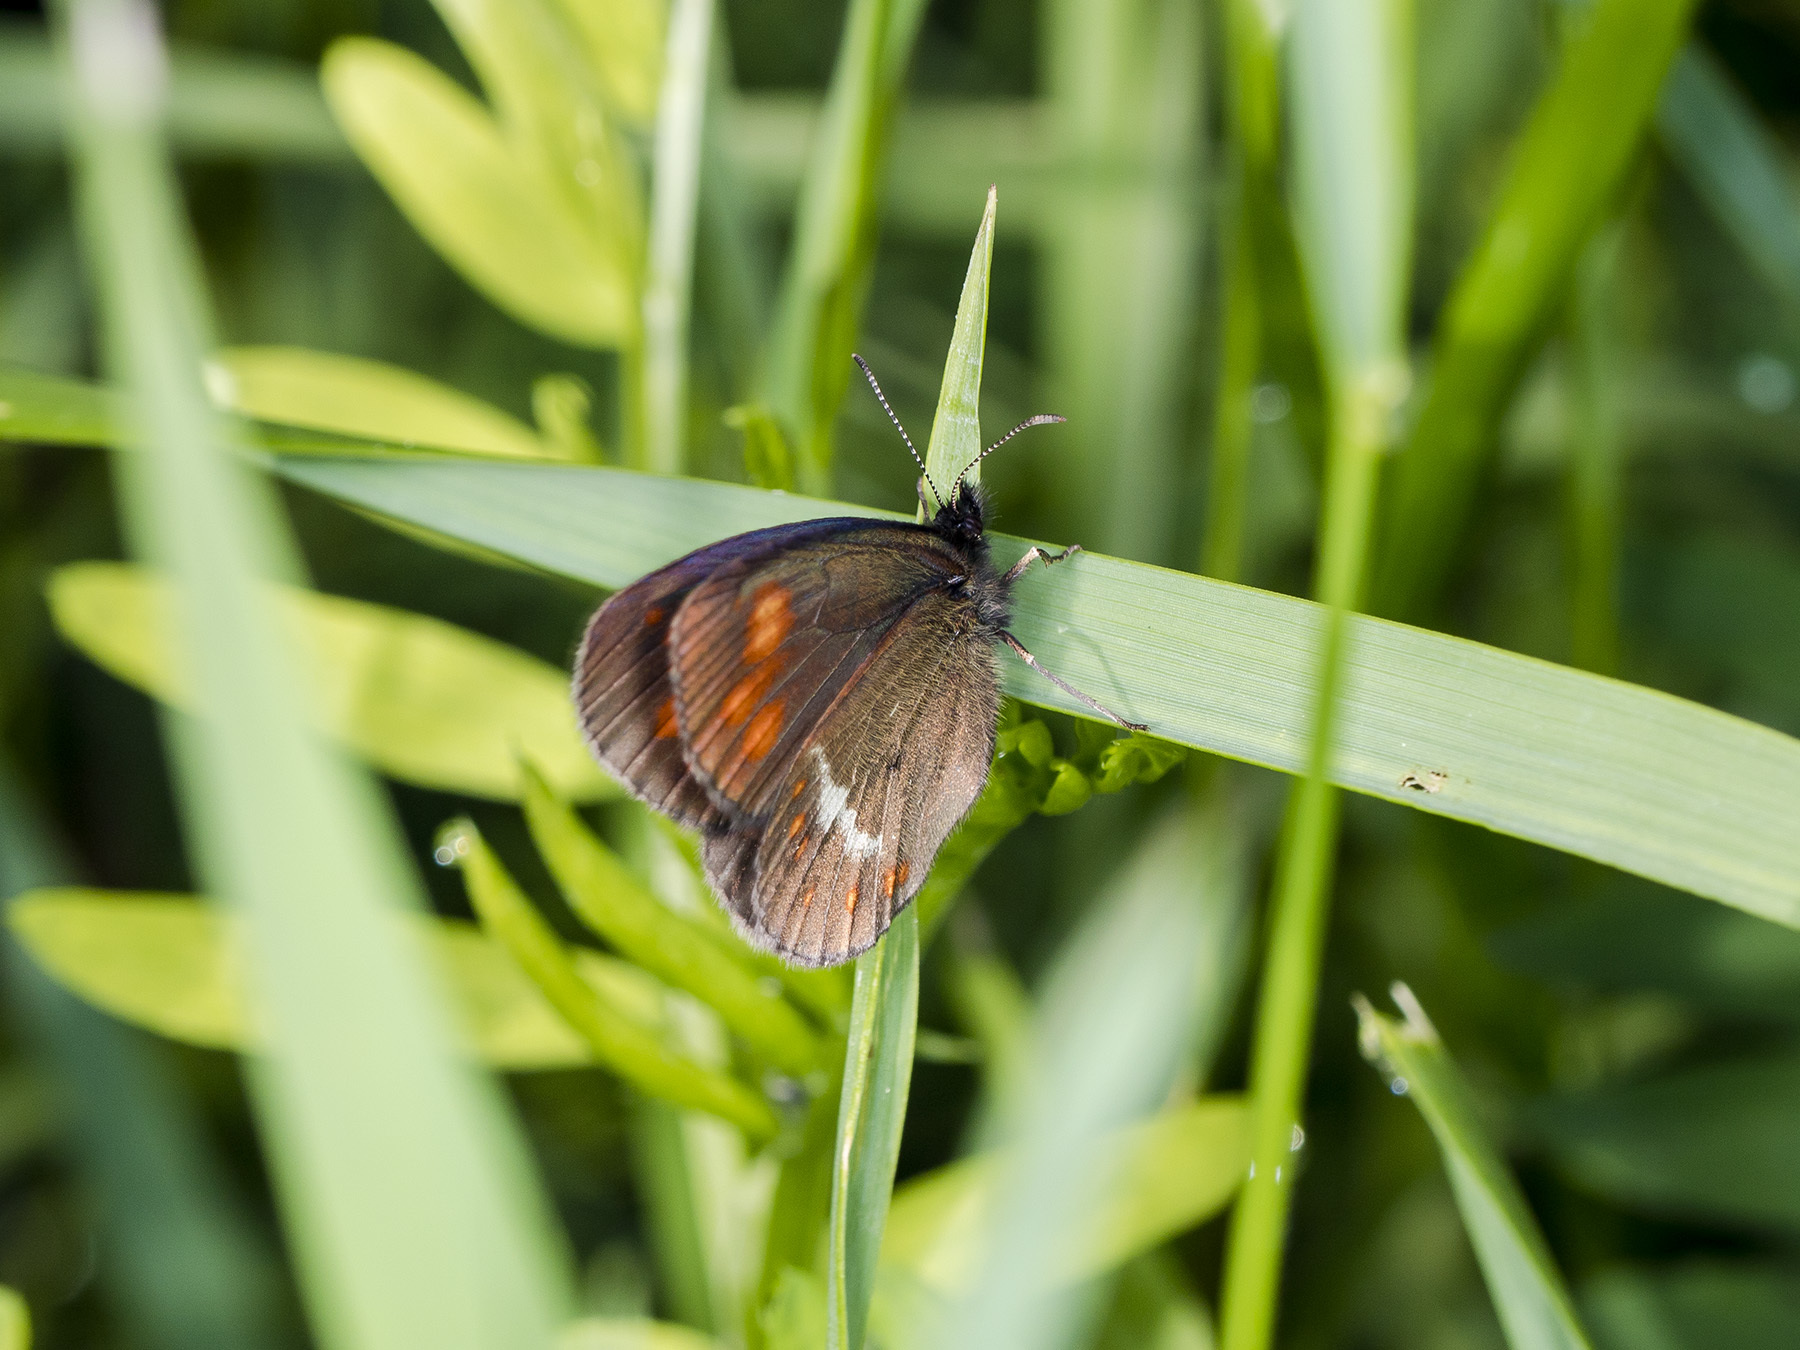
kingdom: Animalia
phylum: Arthropoda
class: Insecta
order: Lepidoptera
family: Nymphalidae
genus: Erebia
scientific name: Erebia turanica
